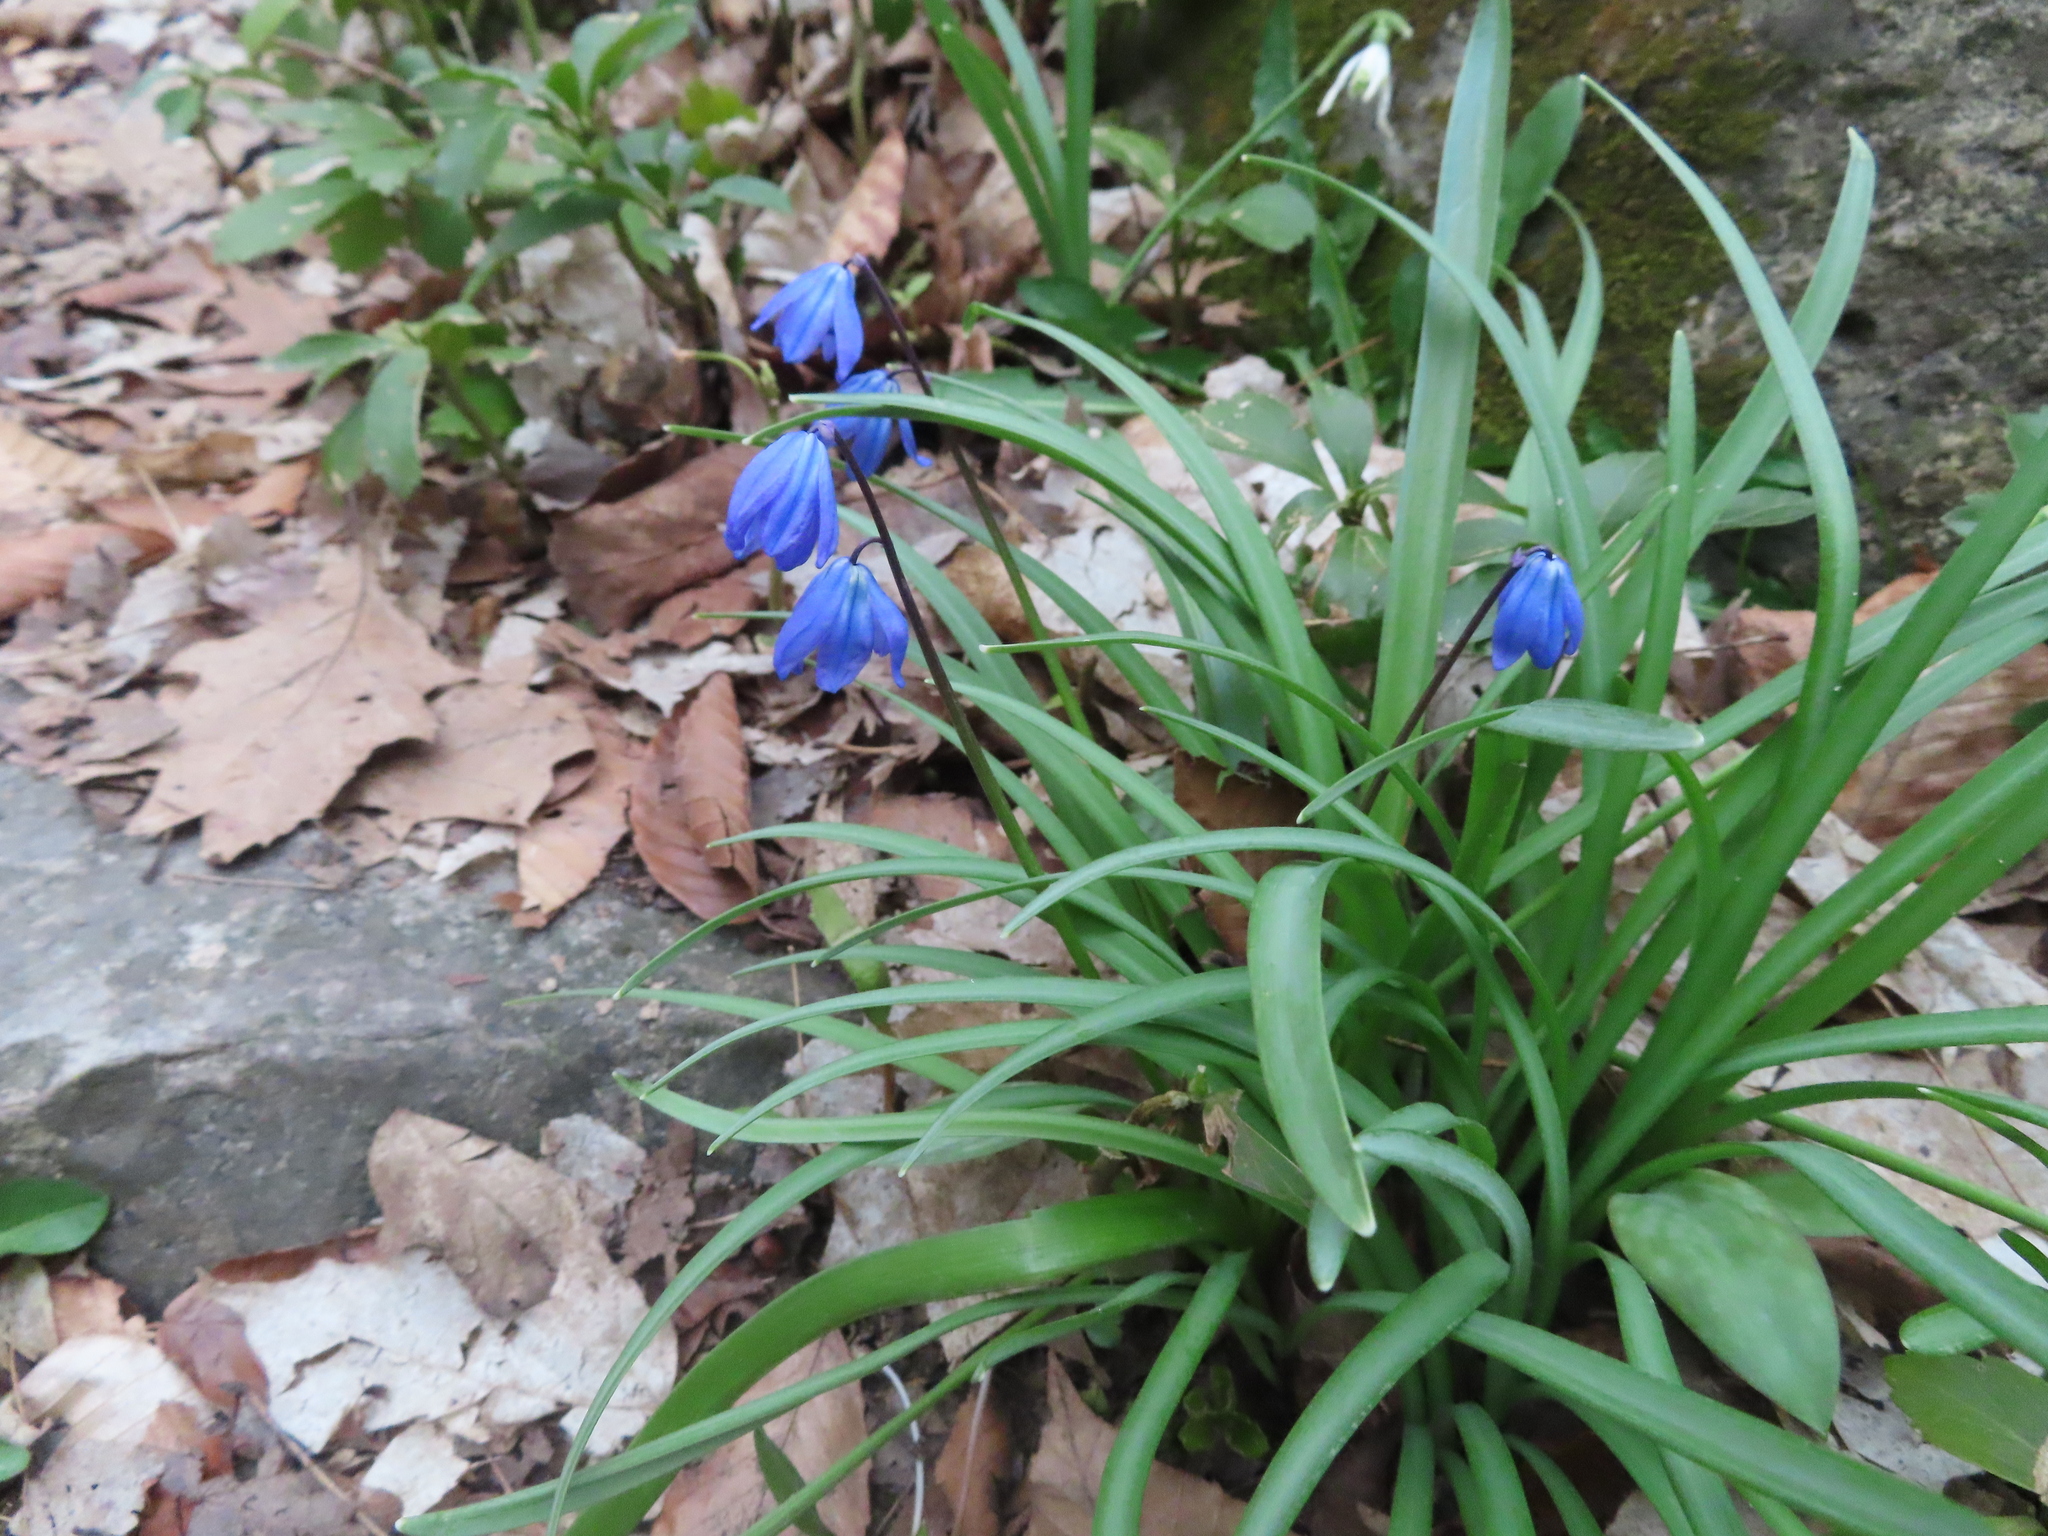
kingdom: Plantae
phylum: Tracheophyta
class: Liliopsida
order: Asparagales
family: Asparagaceae
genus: Scilla
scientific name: Scilla siberica
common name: Siberian squill
